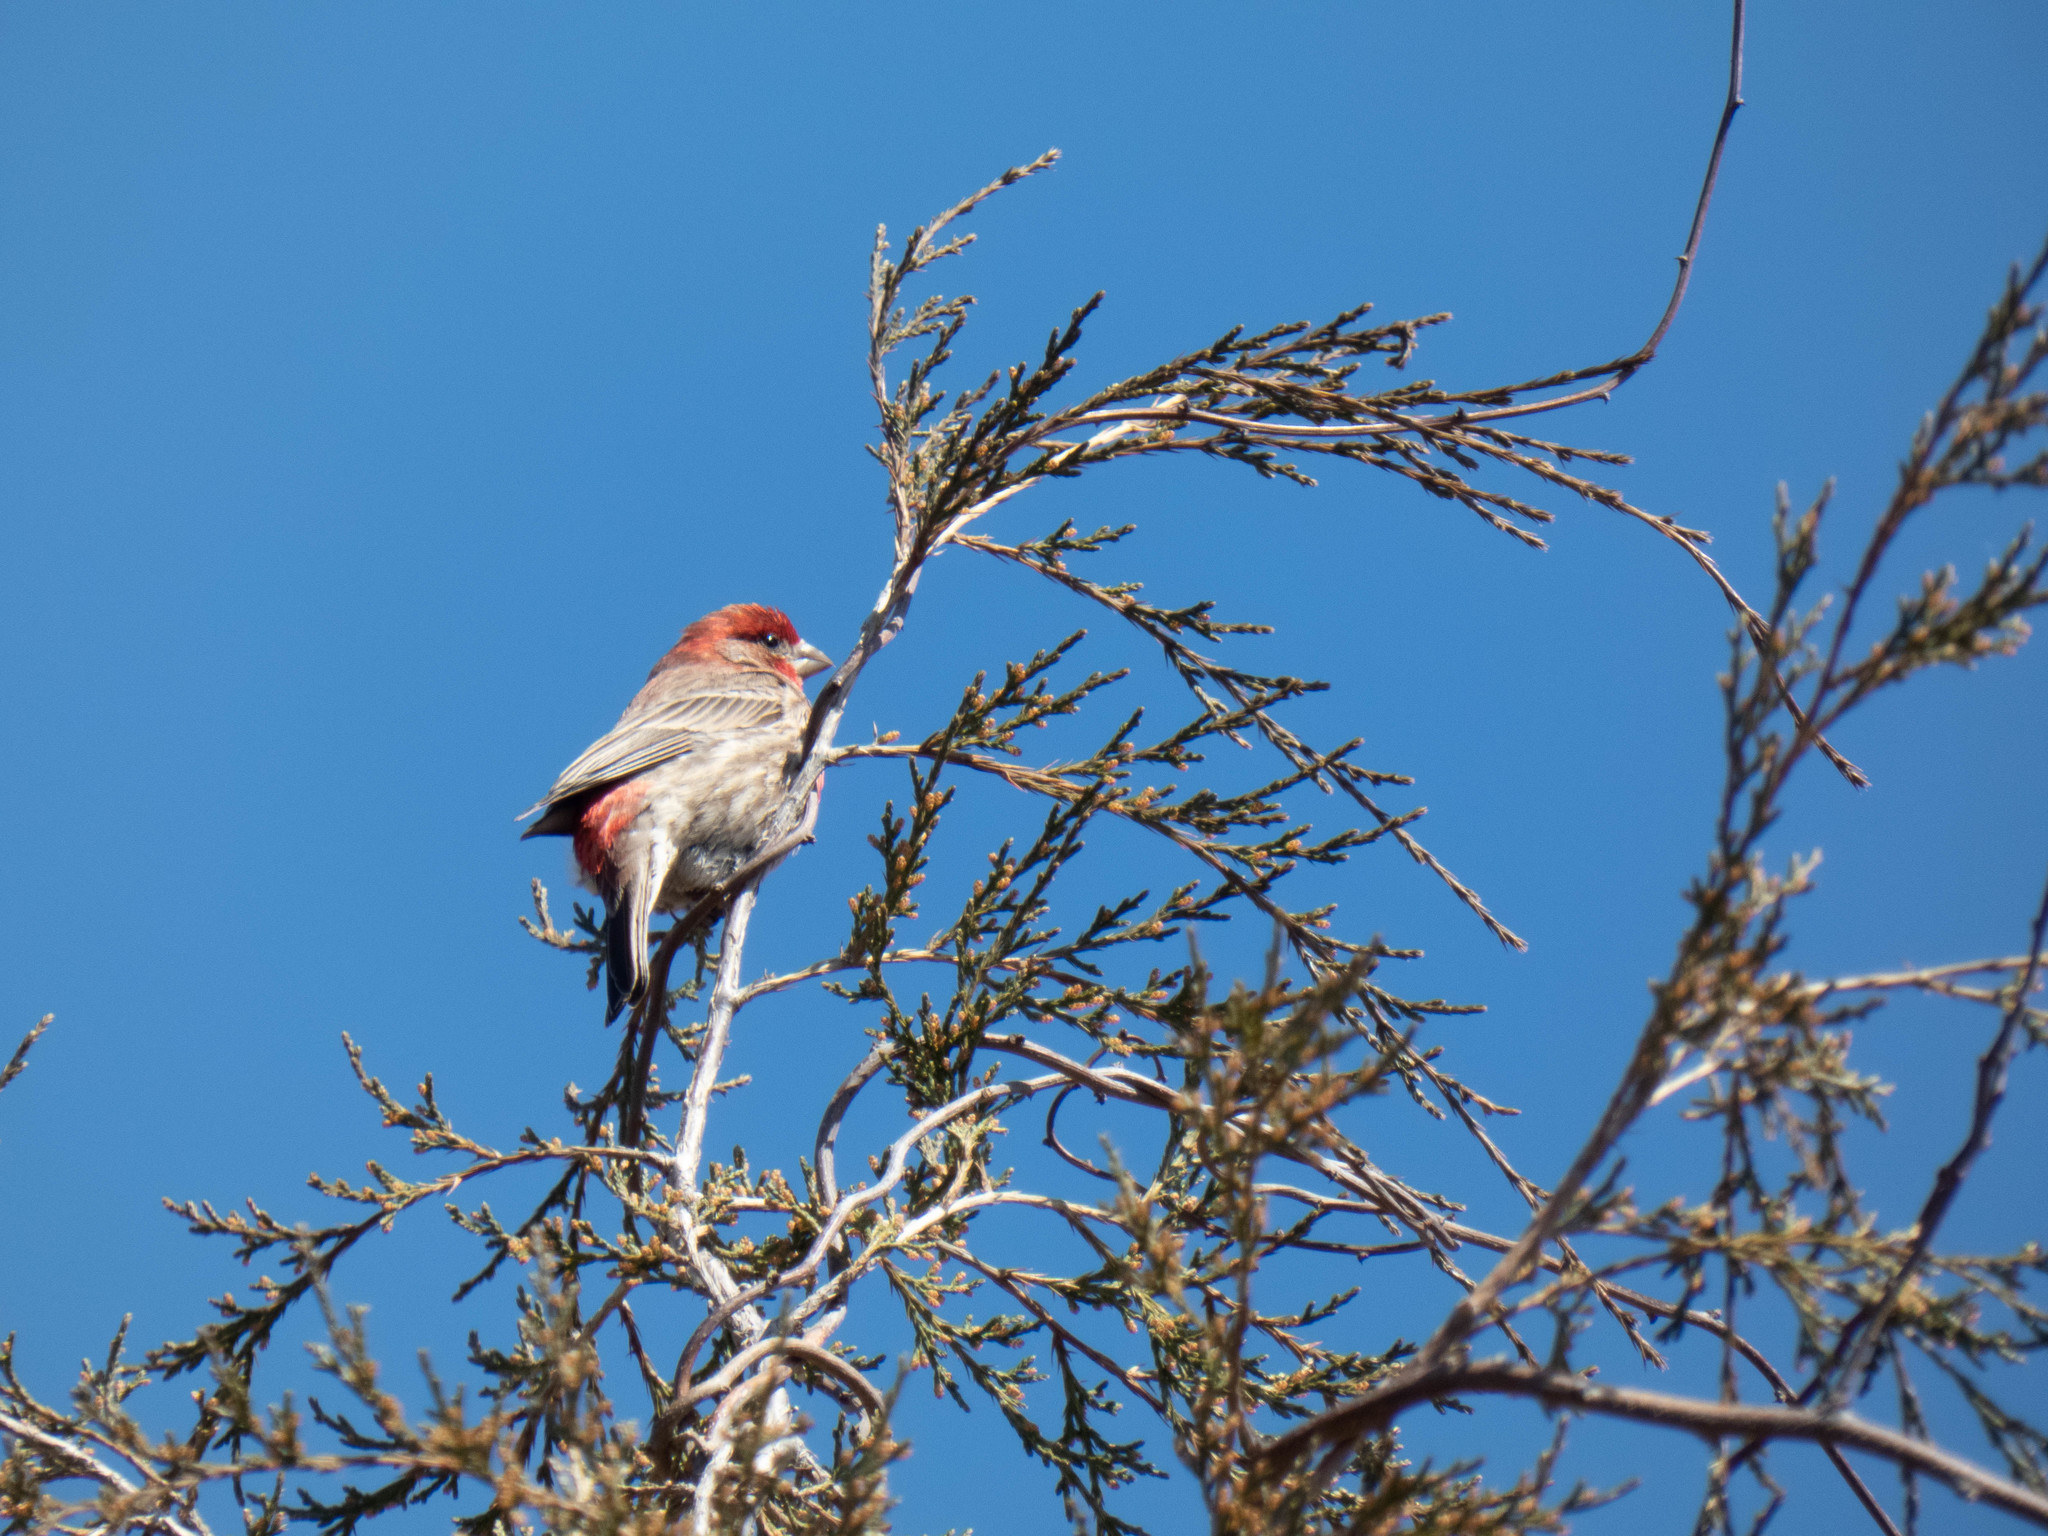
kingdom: Animalia
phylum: Chordata
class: Aves
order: Passeriformes
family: Fringillidae
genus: Haemorhous
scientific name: Haemorhous mexicanus
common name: House finch
